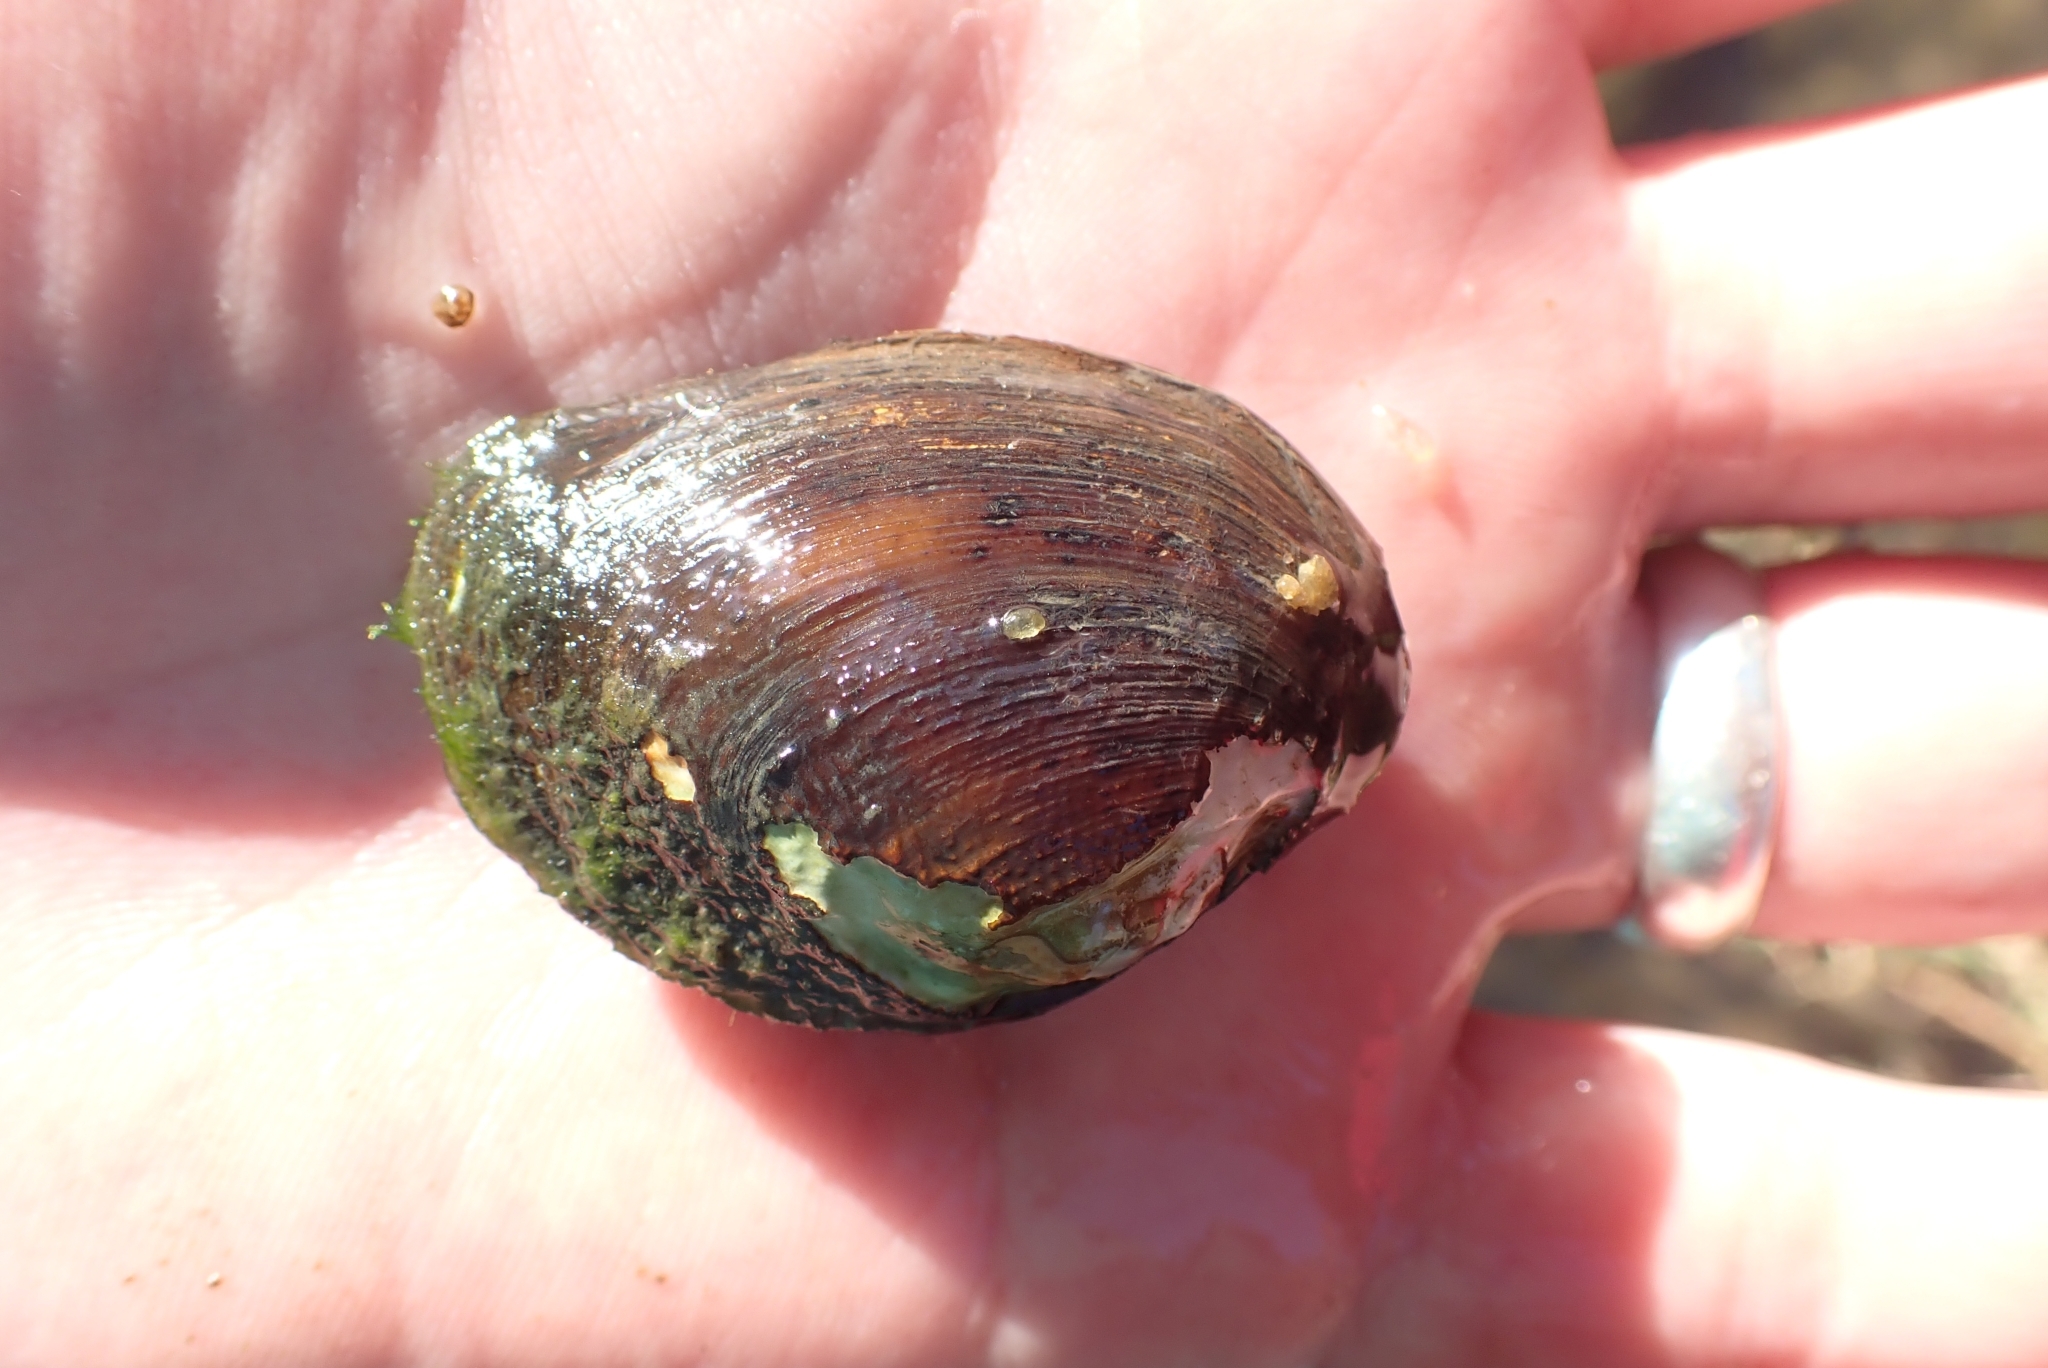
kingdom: Animalia
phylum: Mollusca
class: Bivalvia
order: Unionida
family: Unionidae
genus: Coelatura
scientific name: Coelatura kunenensis
